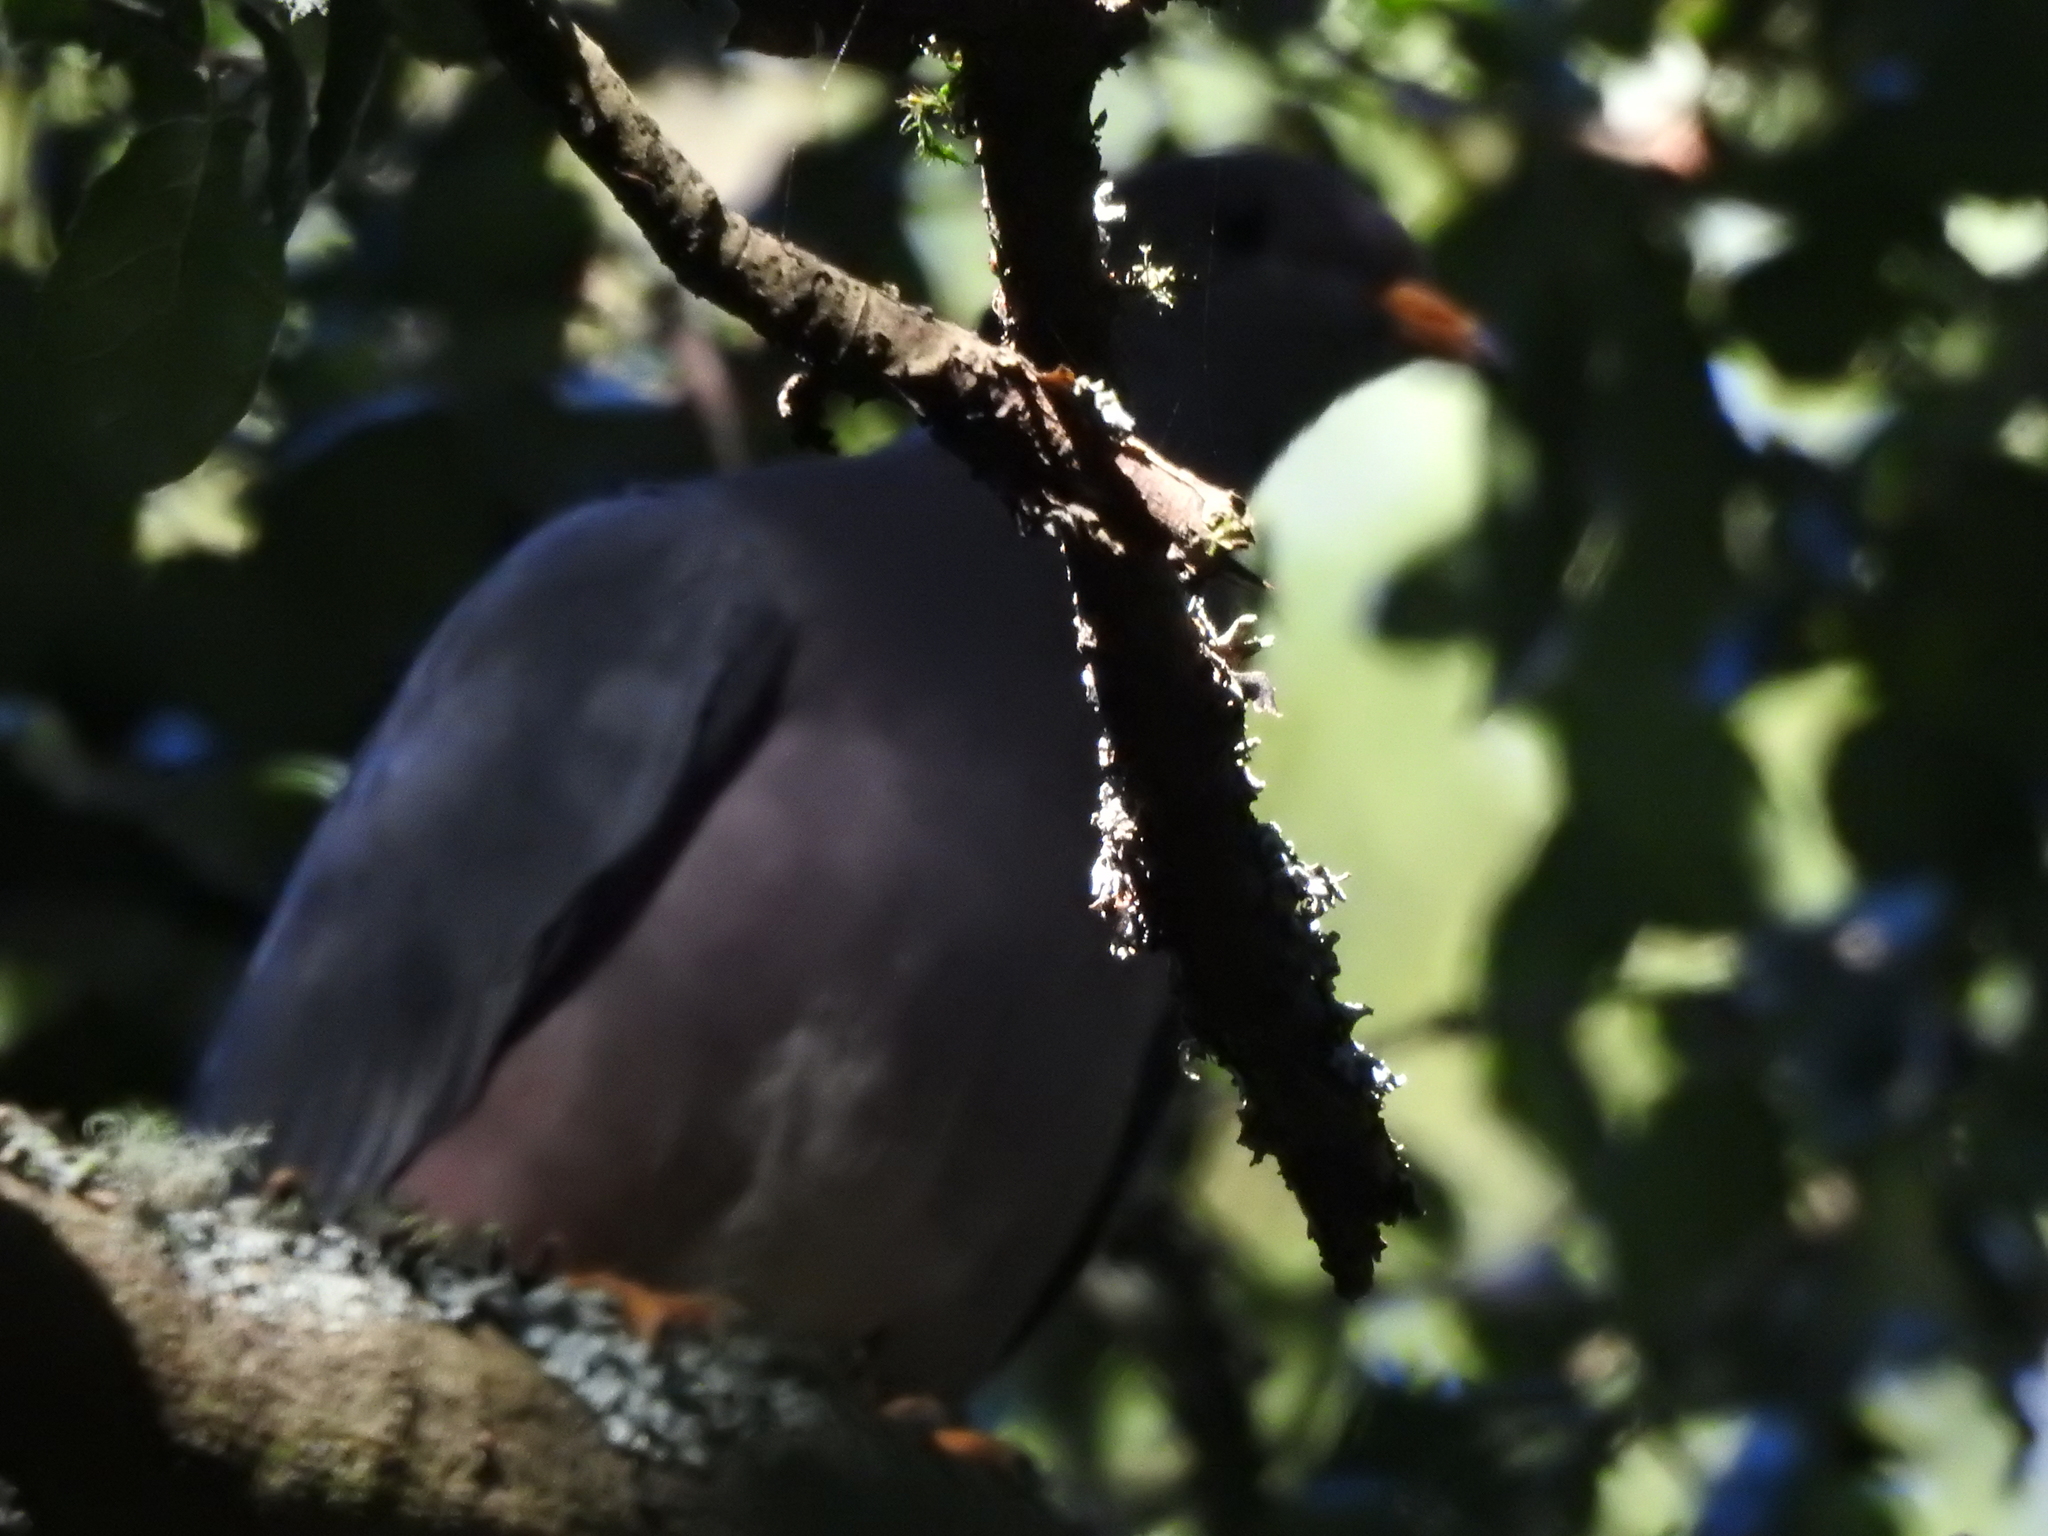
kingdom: Animalia
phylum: Chordata
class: Aves
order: Columbiformes
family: Columbidae
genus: Patagioenas
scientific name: Patagioenas fasciata
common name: Band-tailed pigeon
